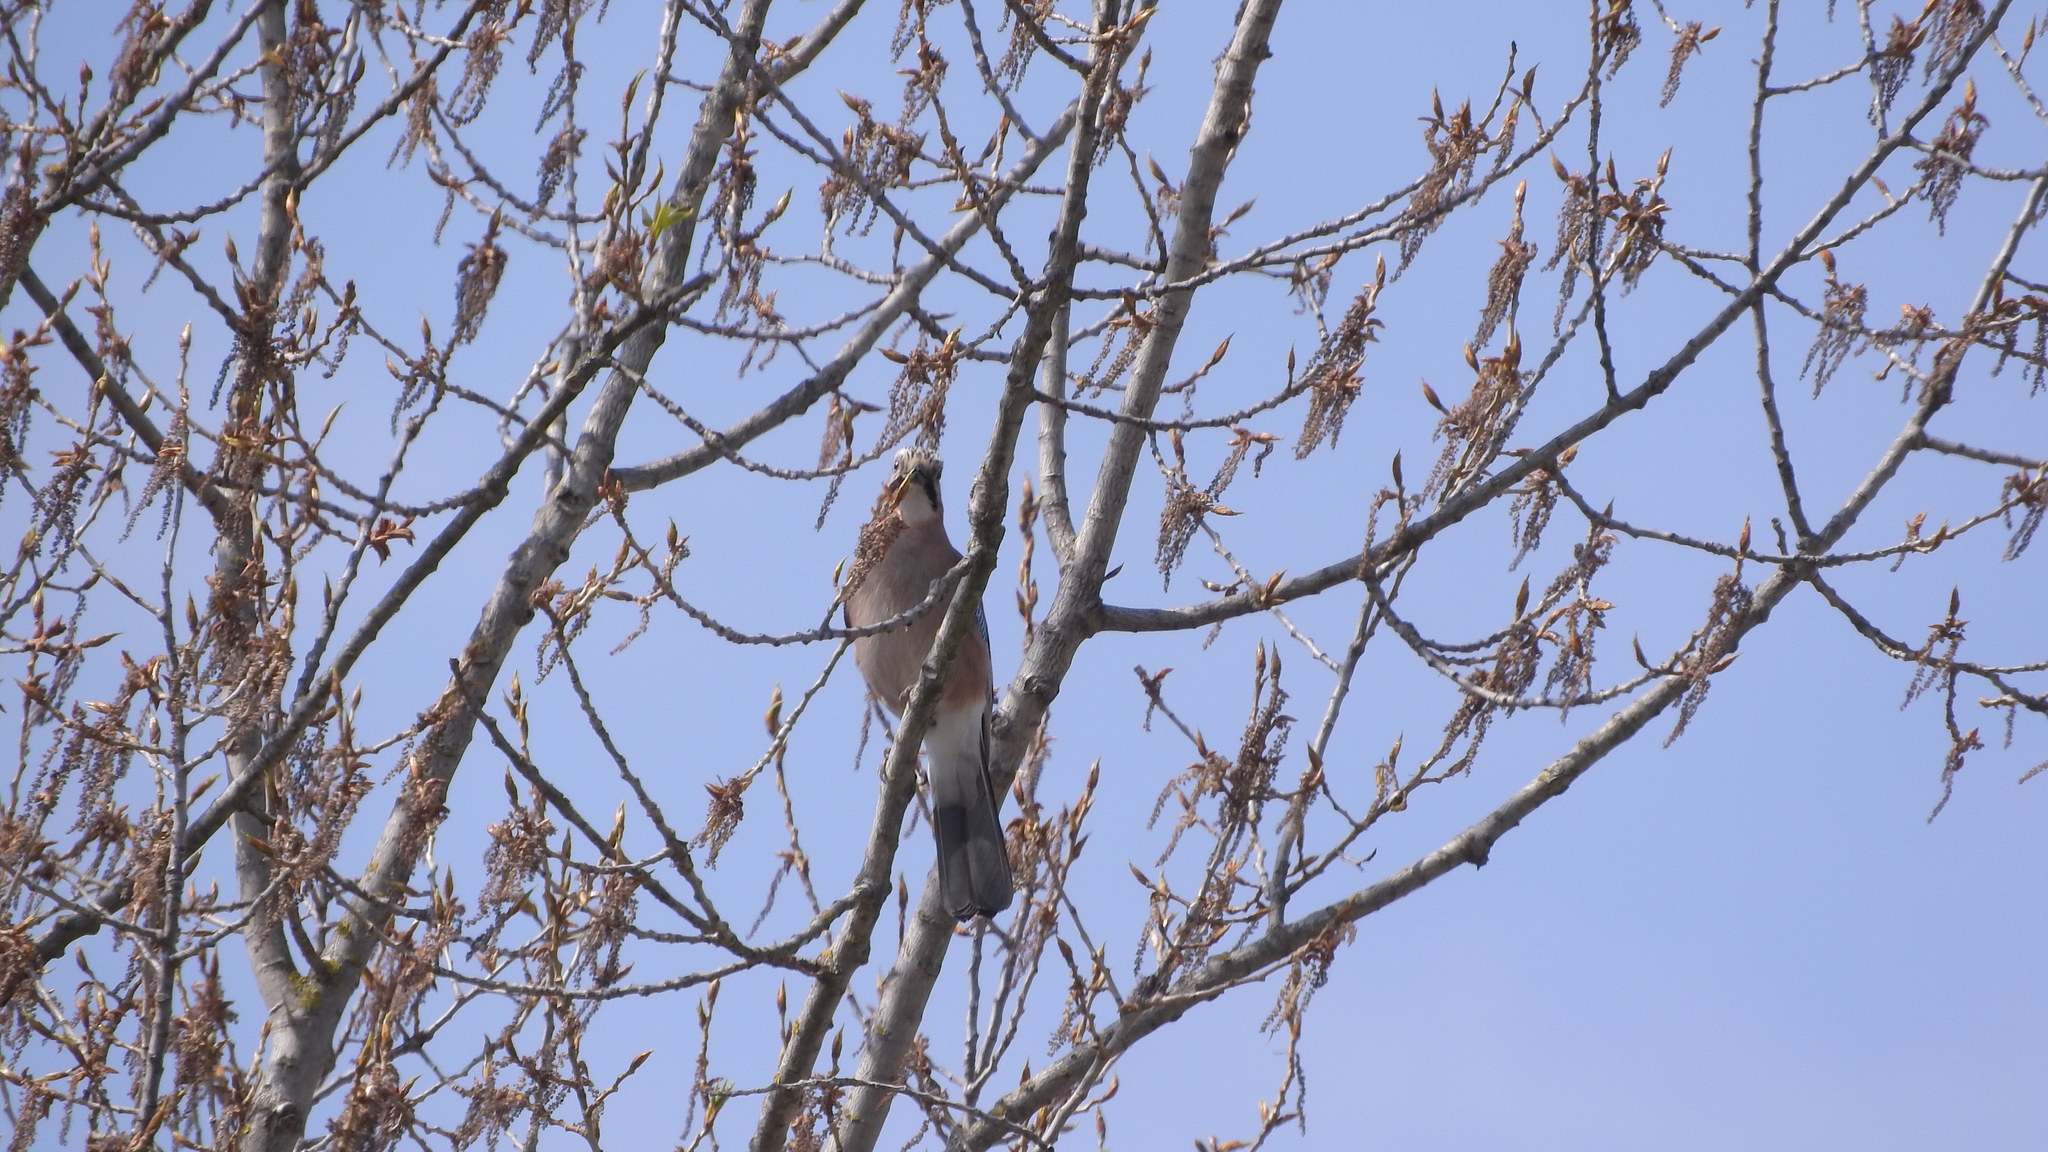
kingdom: Animalia
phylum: Chordata
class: Aves
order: Passeriformes
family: Corvidae
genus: Garrulus
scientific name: Garrulus glandarius
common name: Eurasian jay
